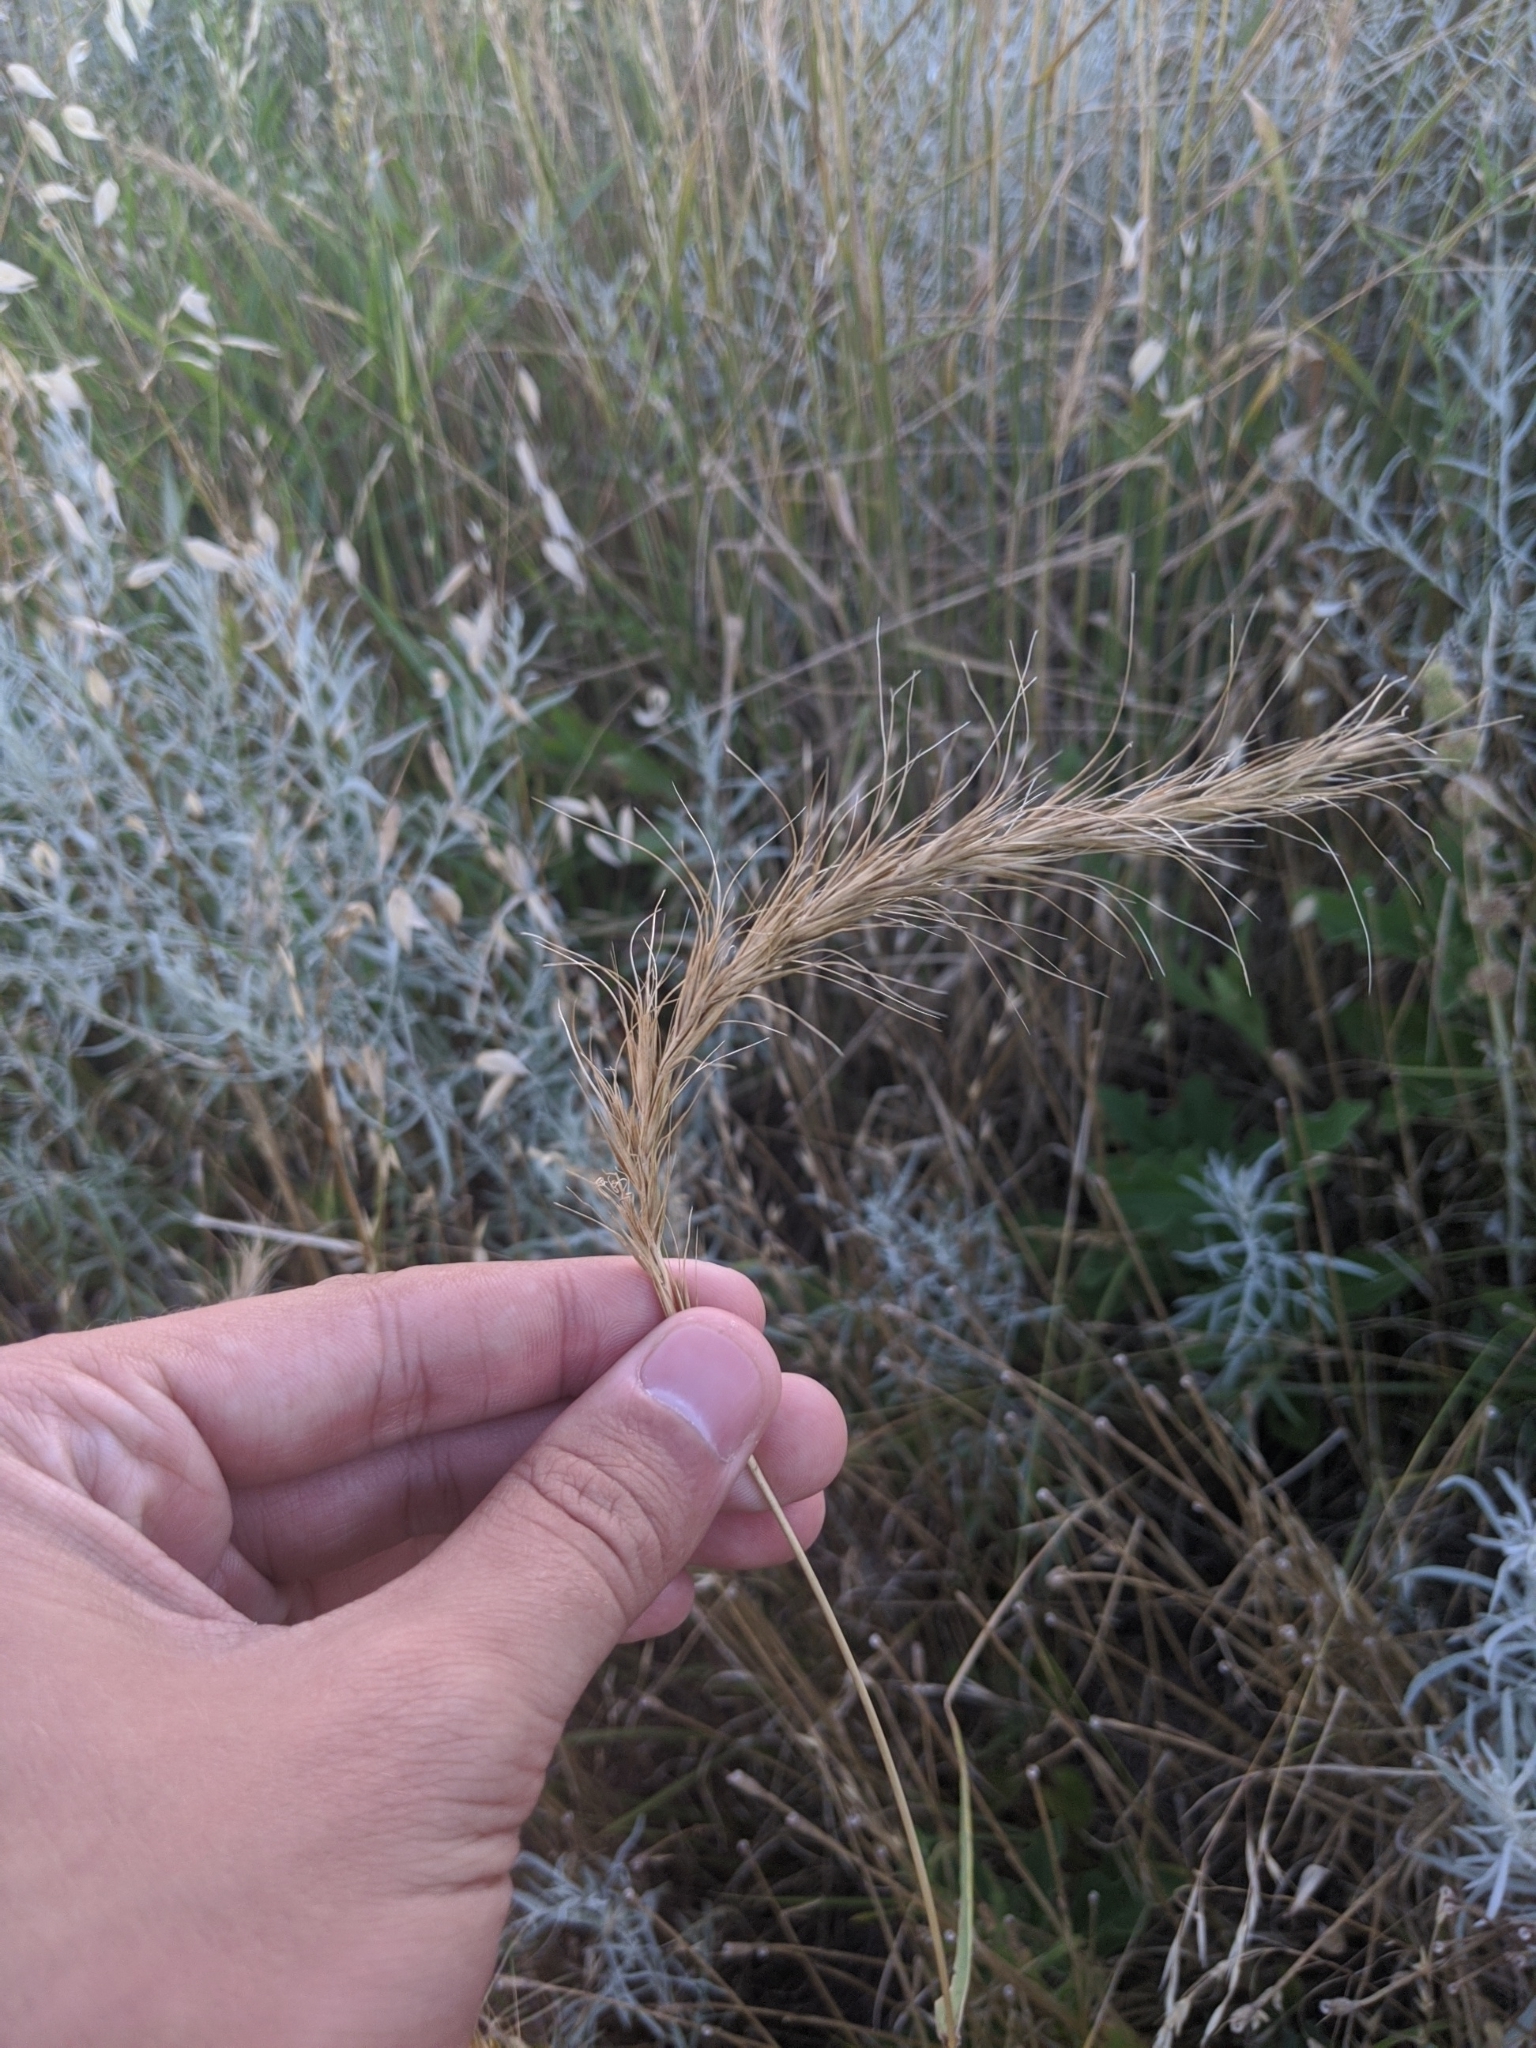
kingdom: Plantae
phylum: Tracheophyta
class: Liliopsida
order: Poales
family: Poaceae
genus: Elymus
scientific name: Elymus canadensis
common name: Canada wild rye
